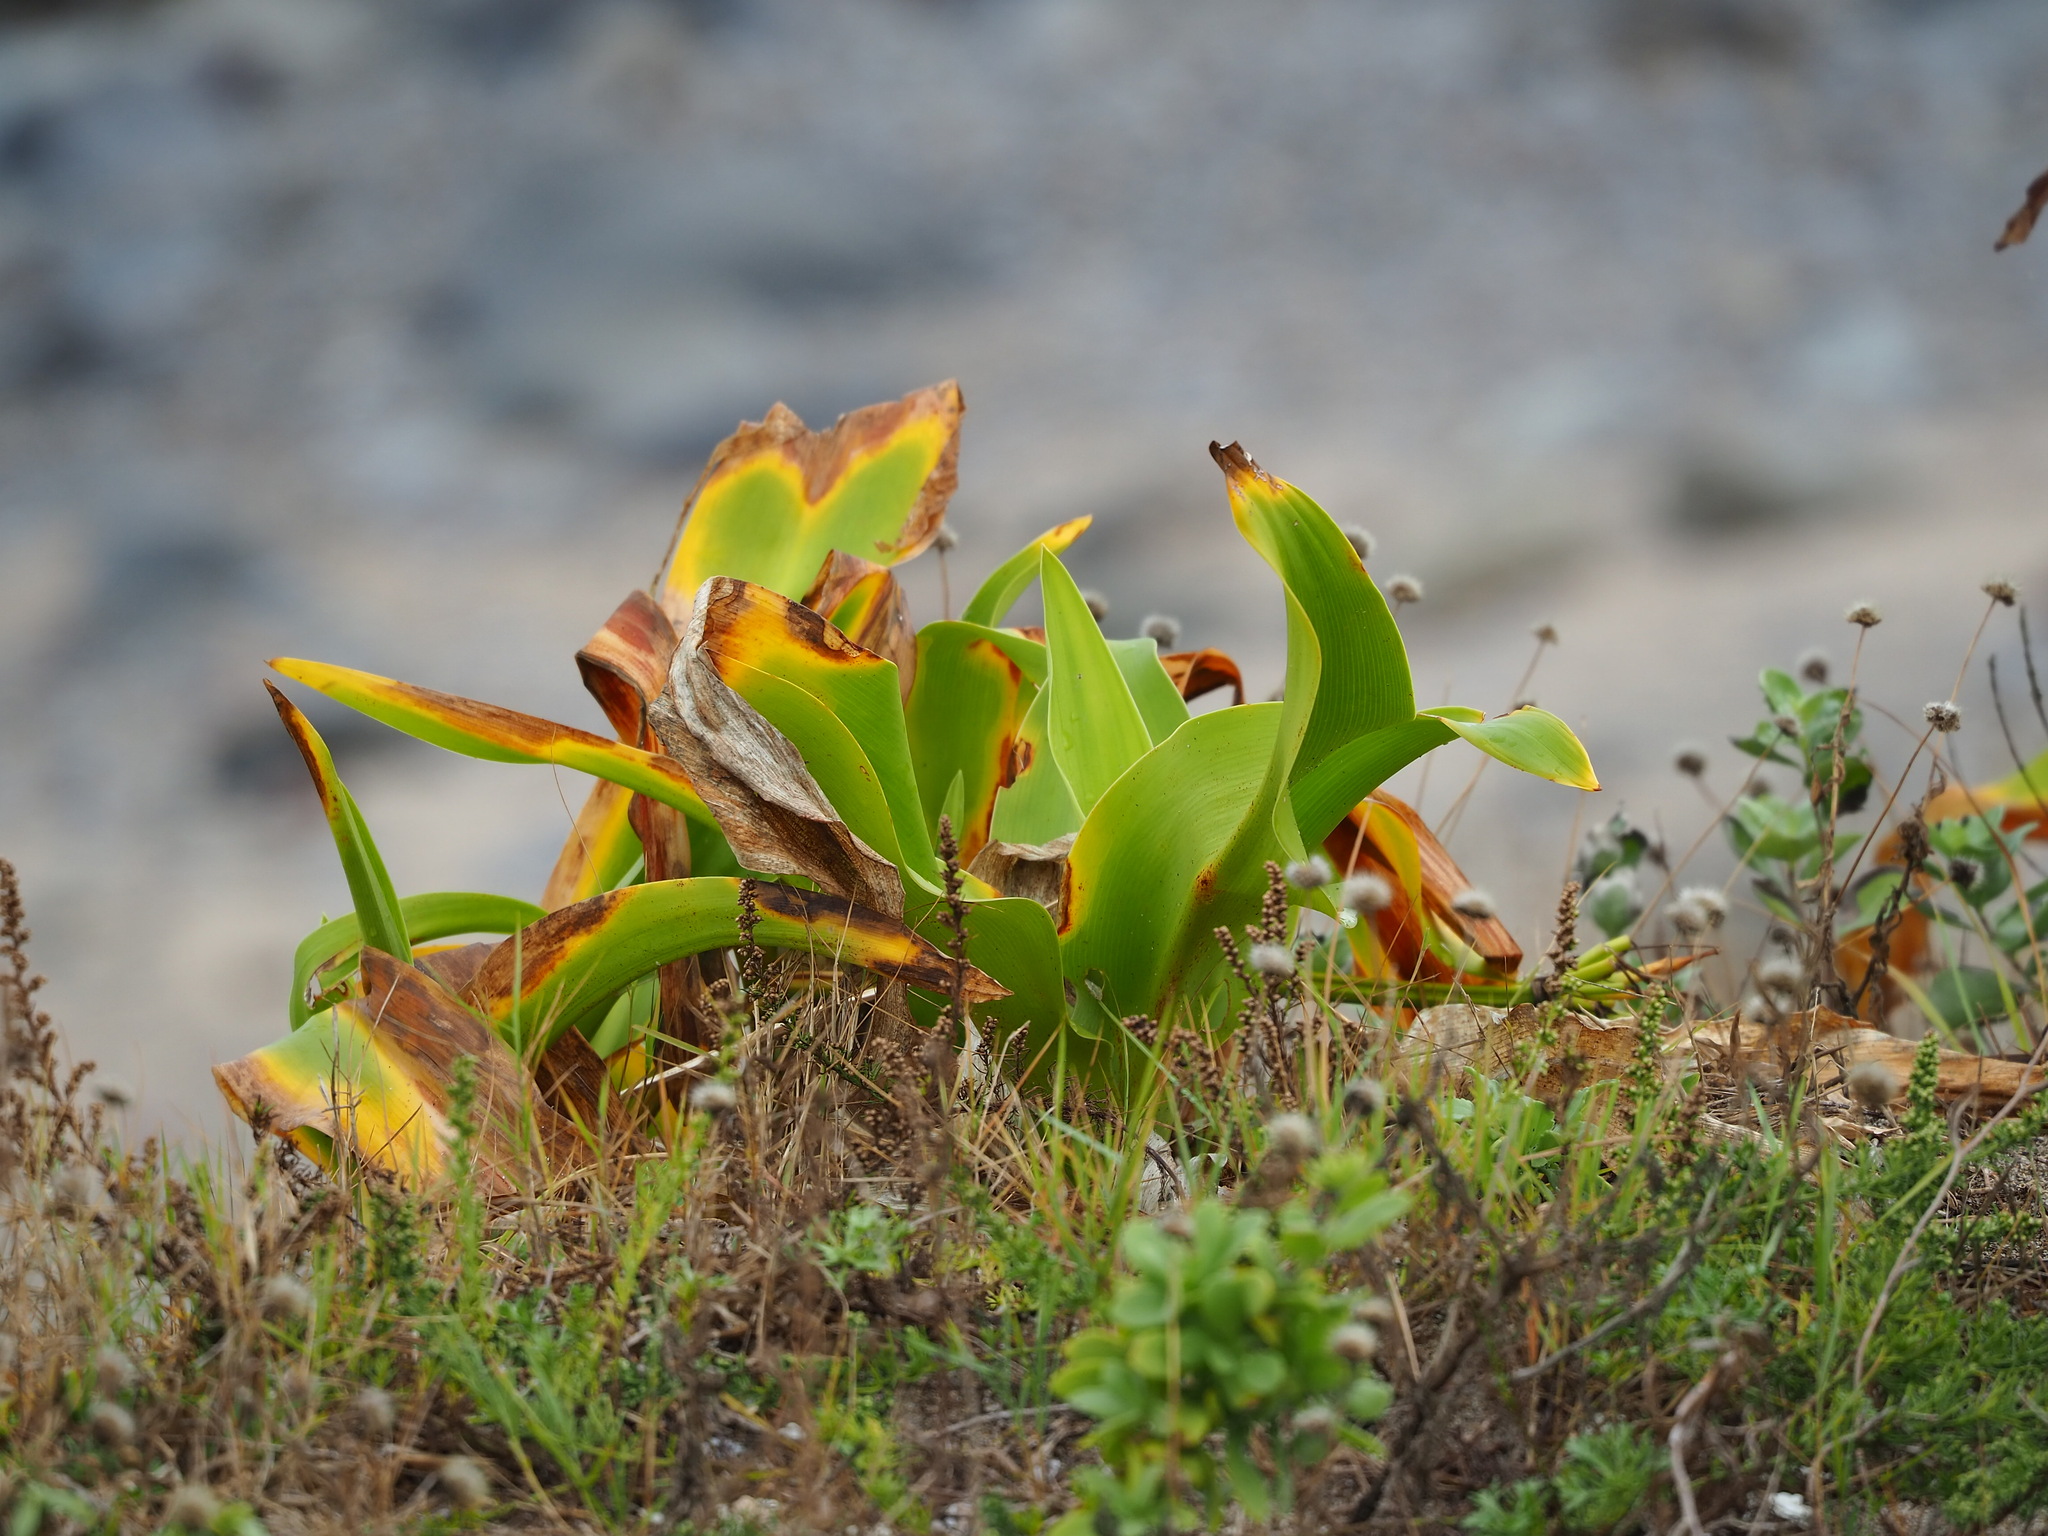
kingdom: Plantae
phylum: Tracheophyta
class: Liliopsida
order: Asparagales
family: Amaryllidaceae
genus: Crinum
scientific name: Crinum asiaticum
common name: Poisonbulb
